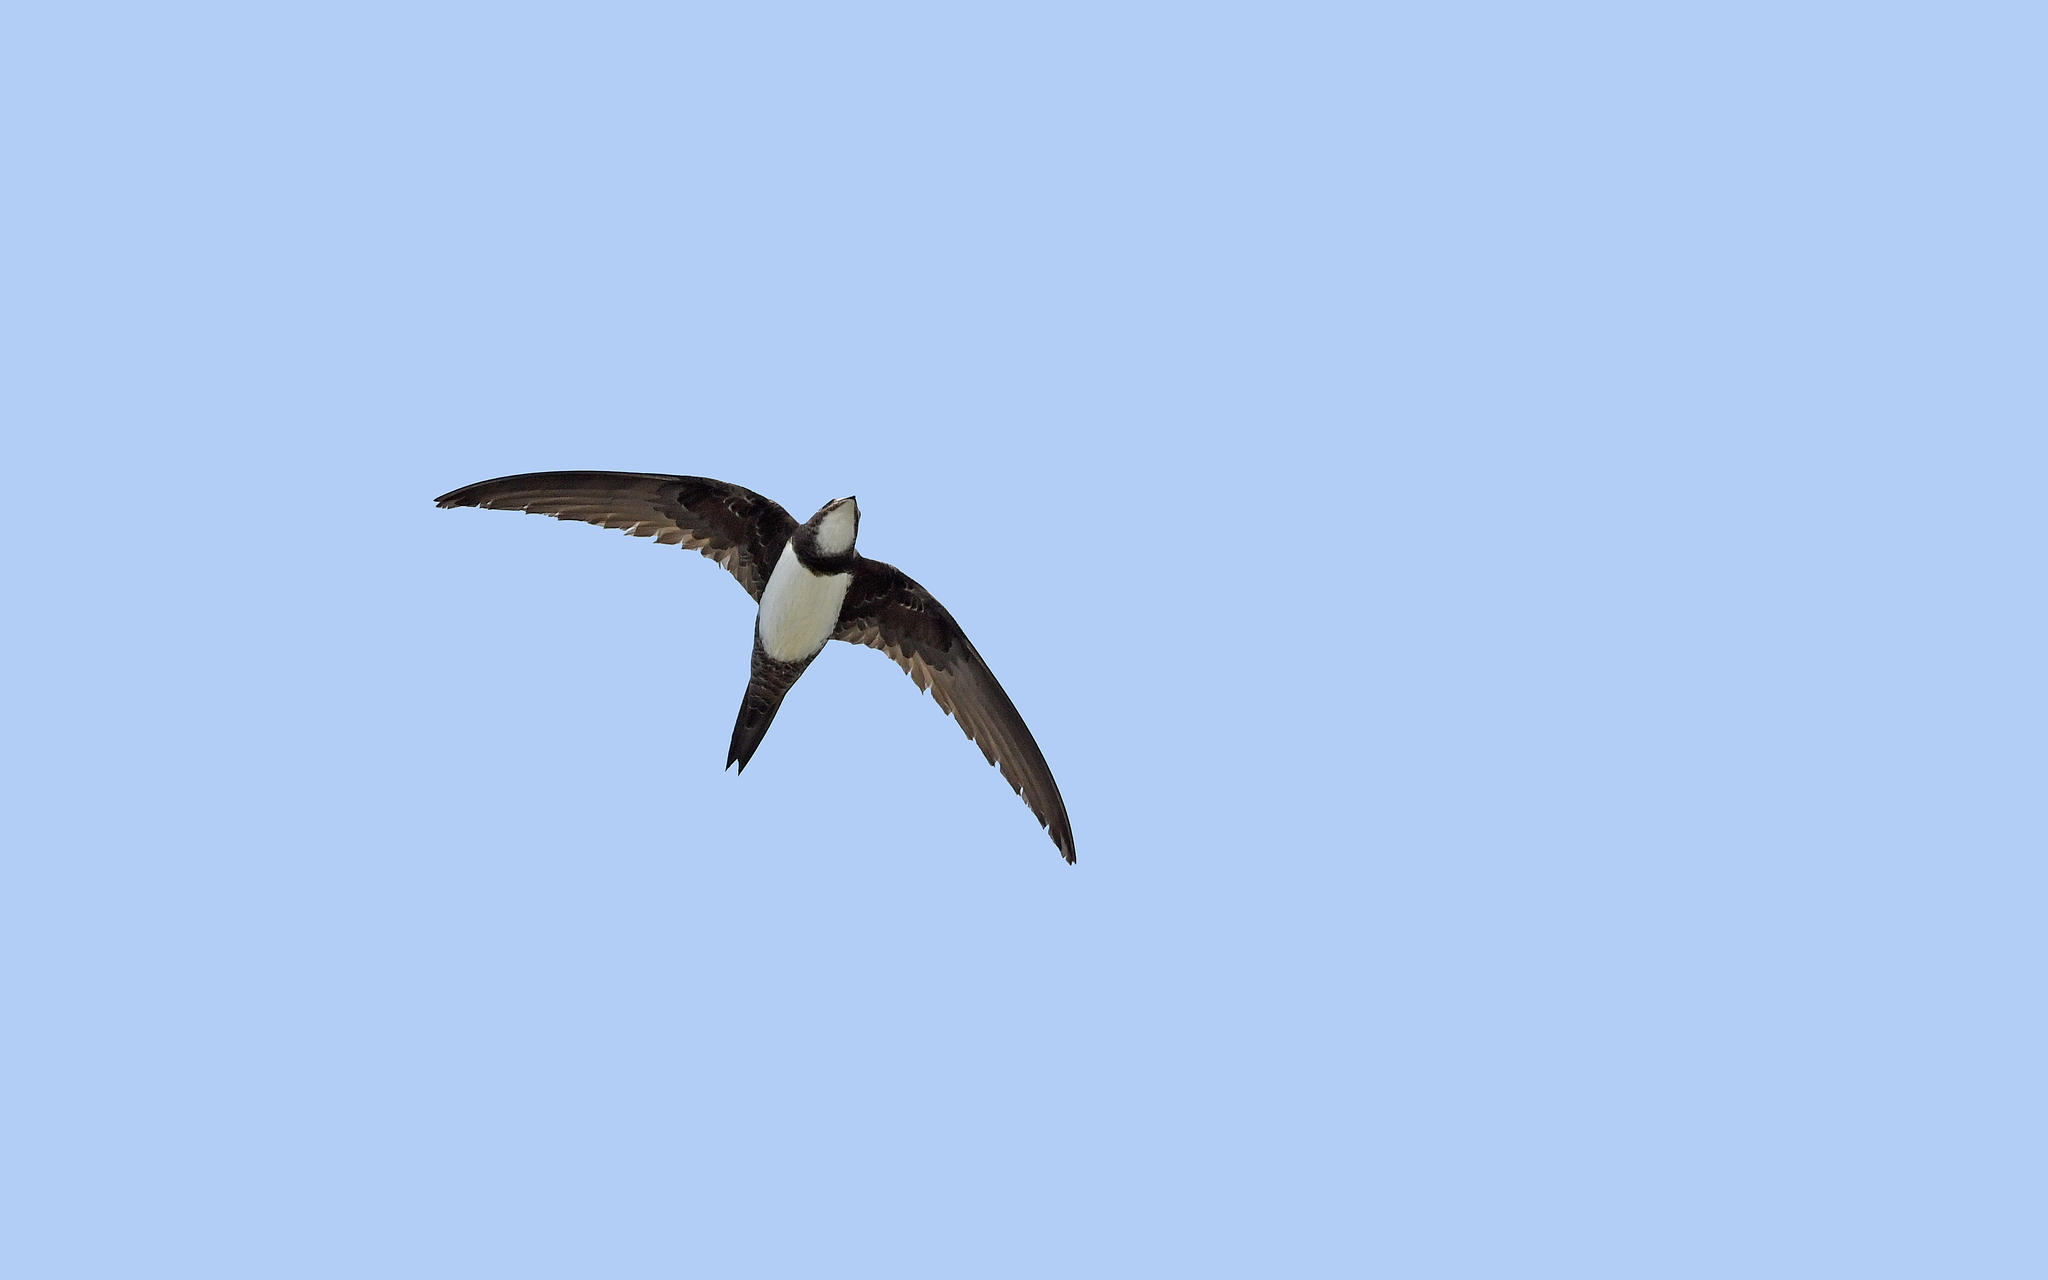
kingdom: Animalia
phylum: Chordata
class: Aves
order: Apodiformes
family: Apodidae
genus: Tachymarptis
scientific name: Tachymarptis melba
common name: Alpine swift
